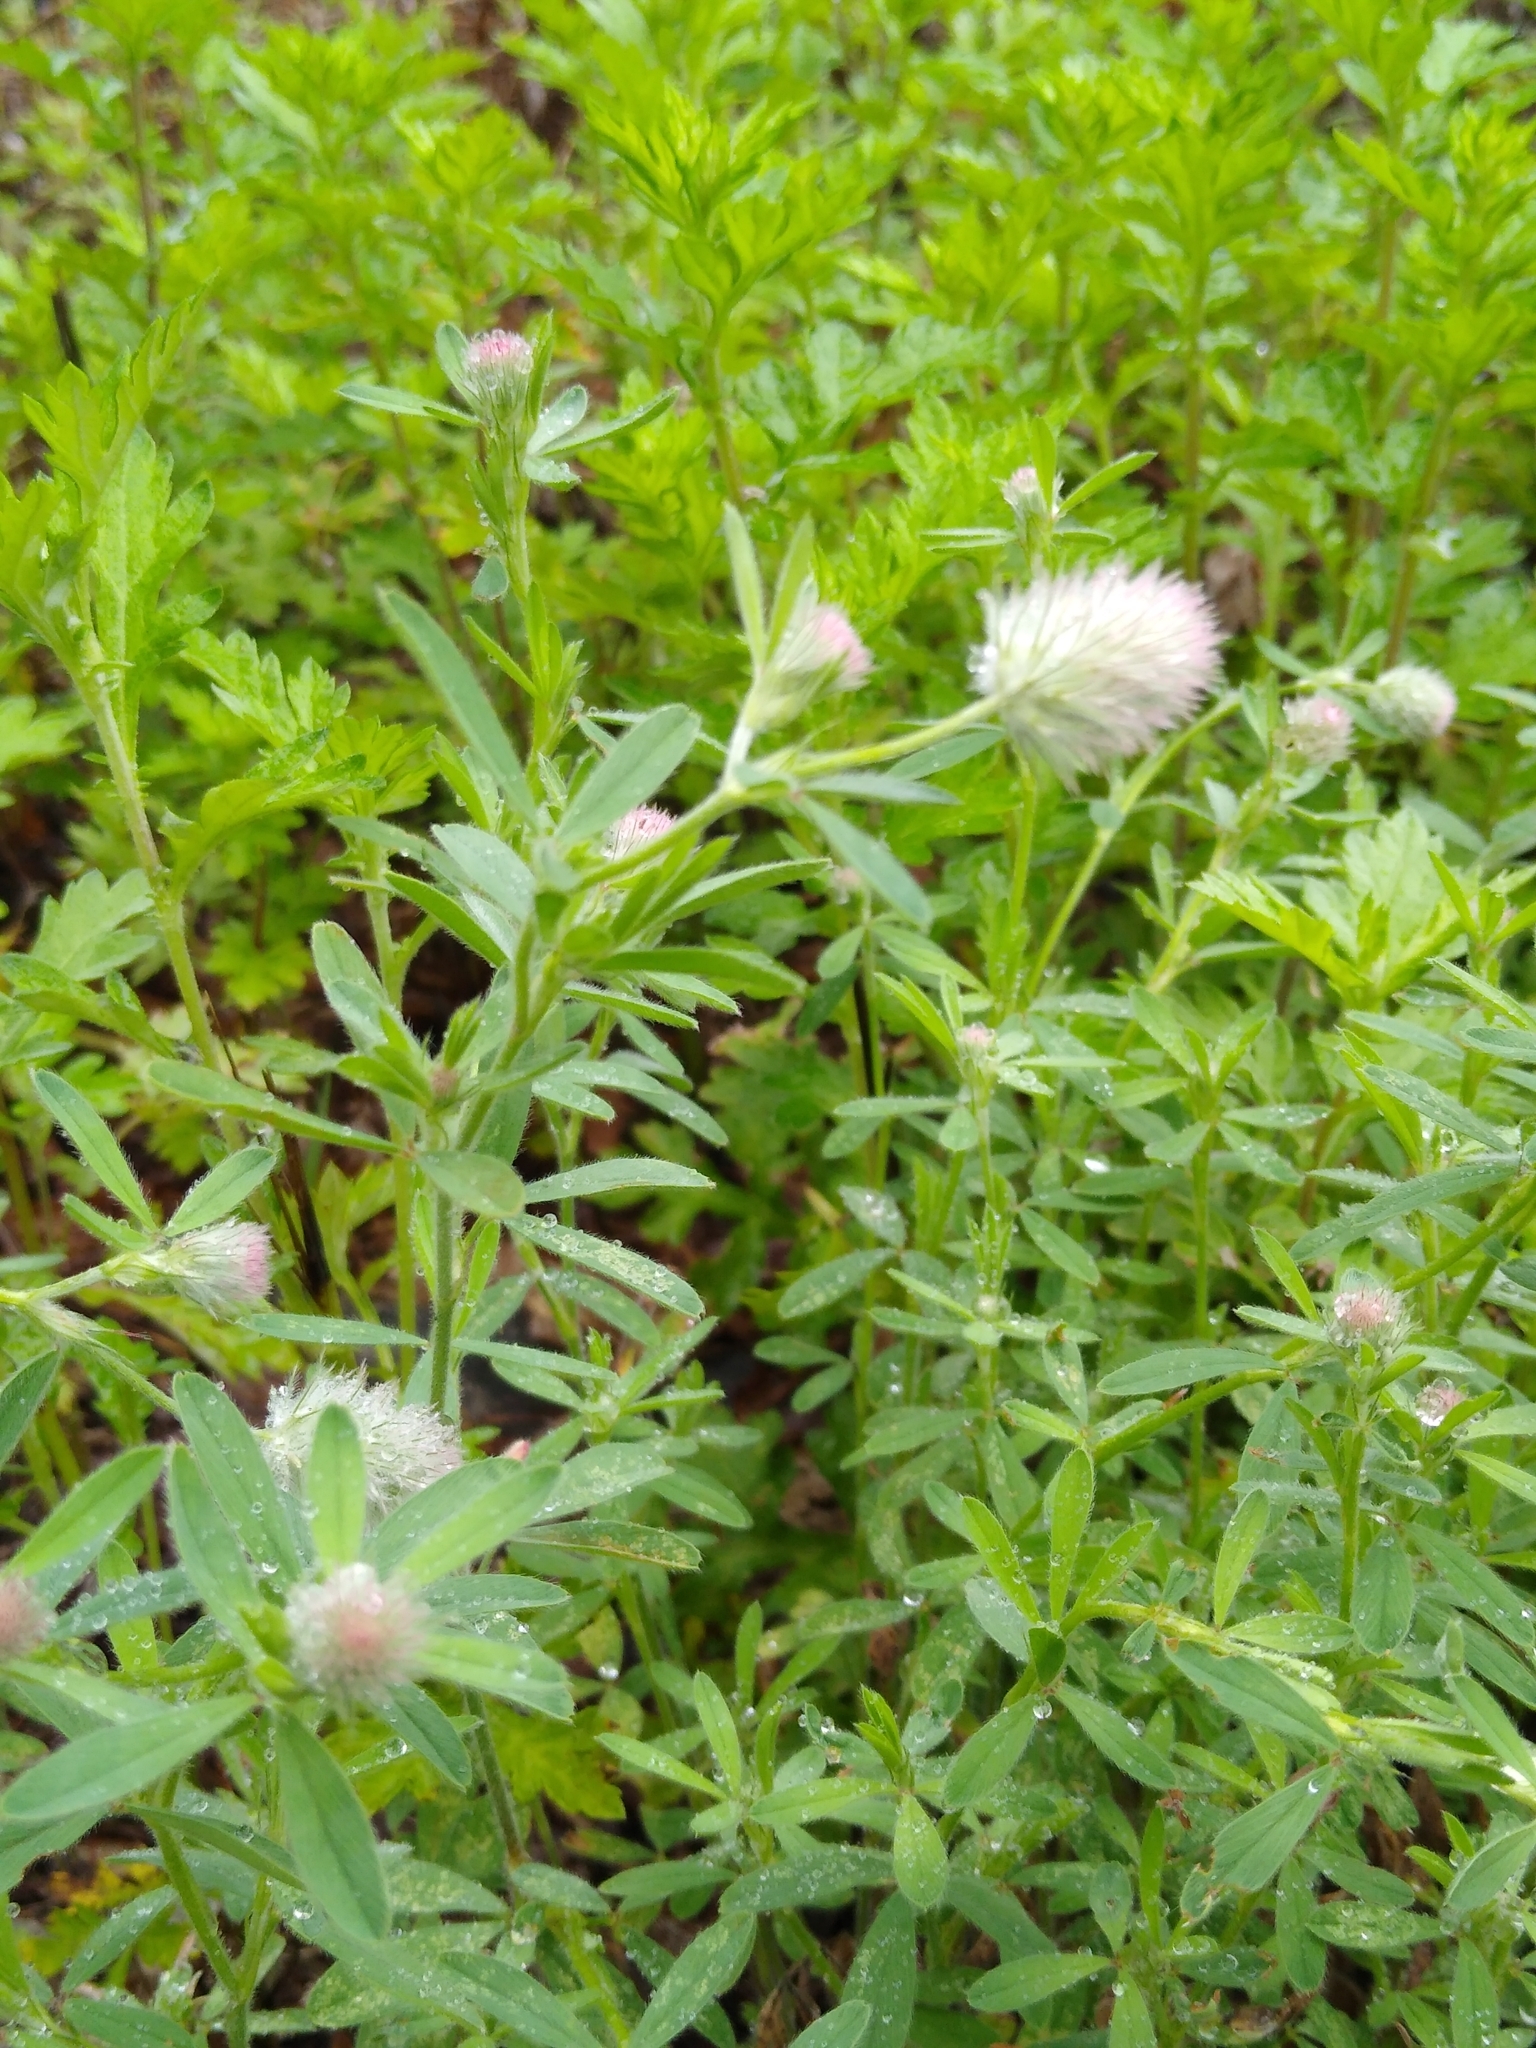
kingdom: Plantae
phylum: Tracheophyta
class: Magnoliopsida
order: Fabales
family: Fabaceae
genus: Trifolium
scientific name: Trifolium arvense
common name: Hare's-foot clover
